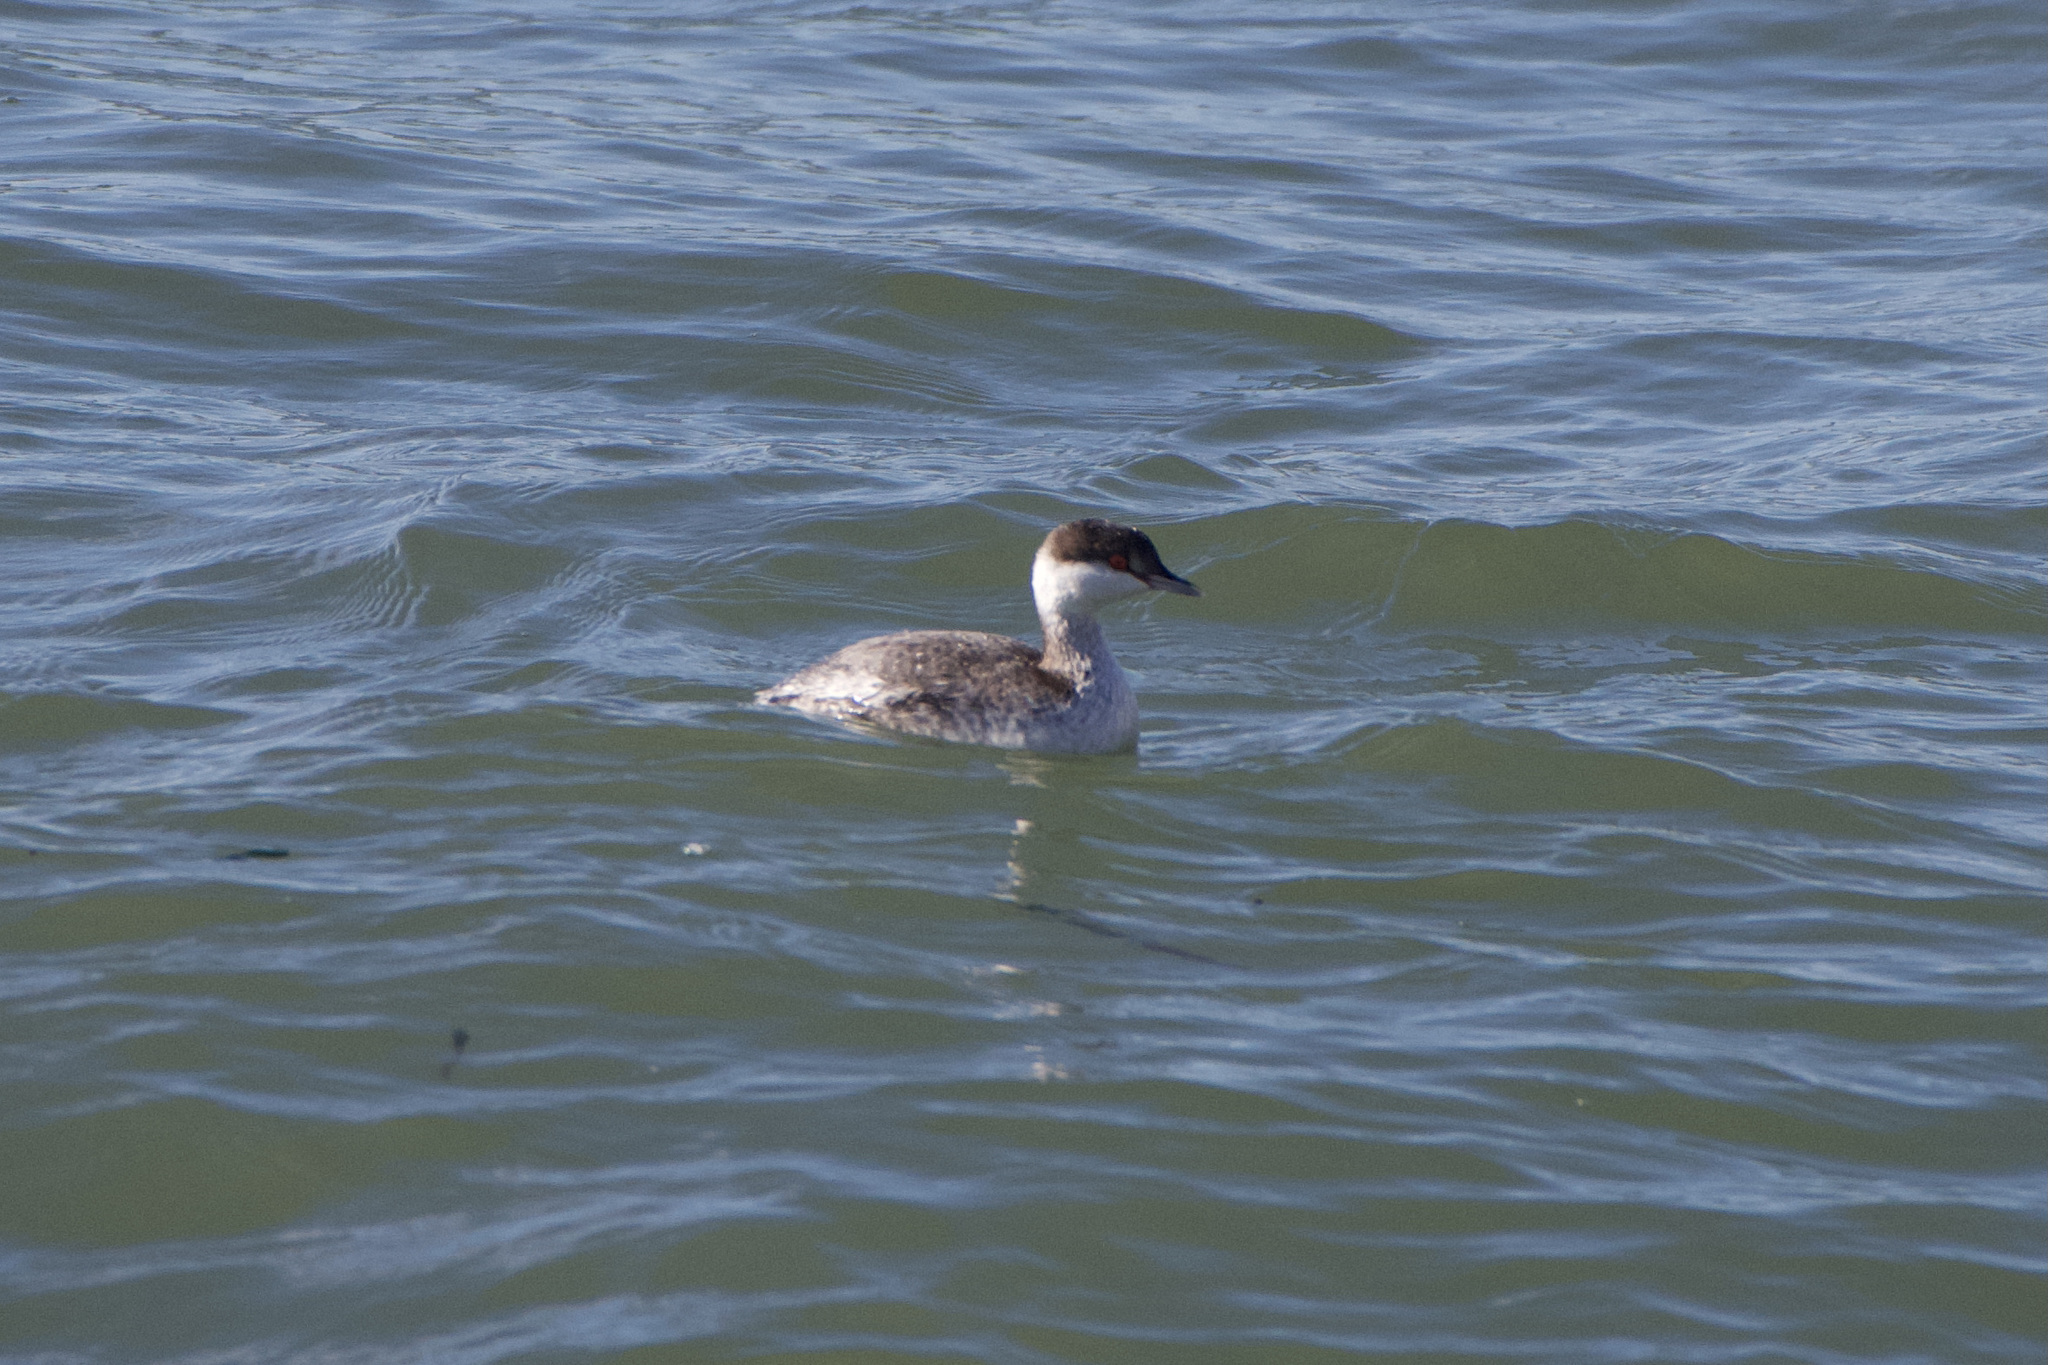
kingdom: Animalia
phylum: Chordata
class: Aves
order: Podicipediformes
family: Podicipedidae
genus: Podiceps
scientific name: Podiceps auritus
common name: Horned grebe
